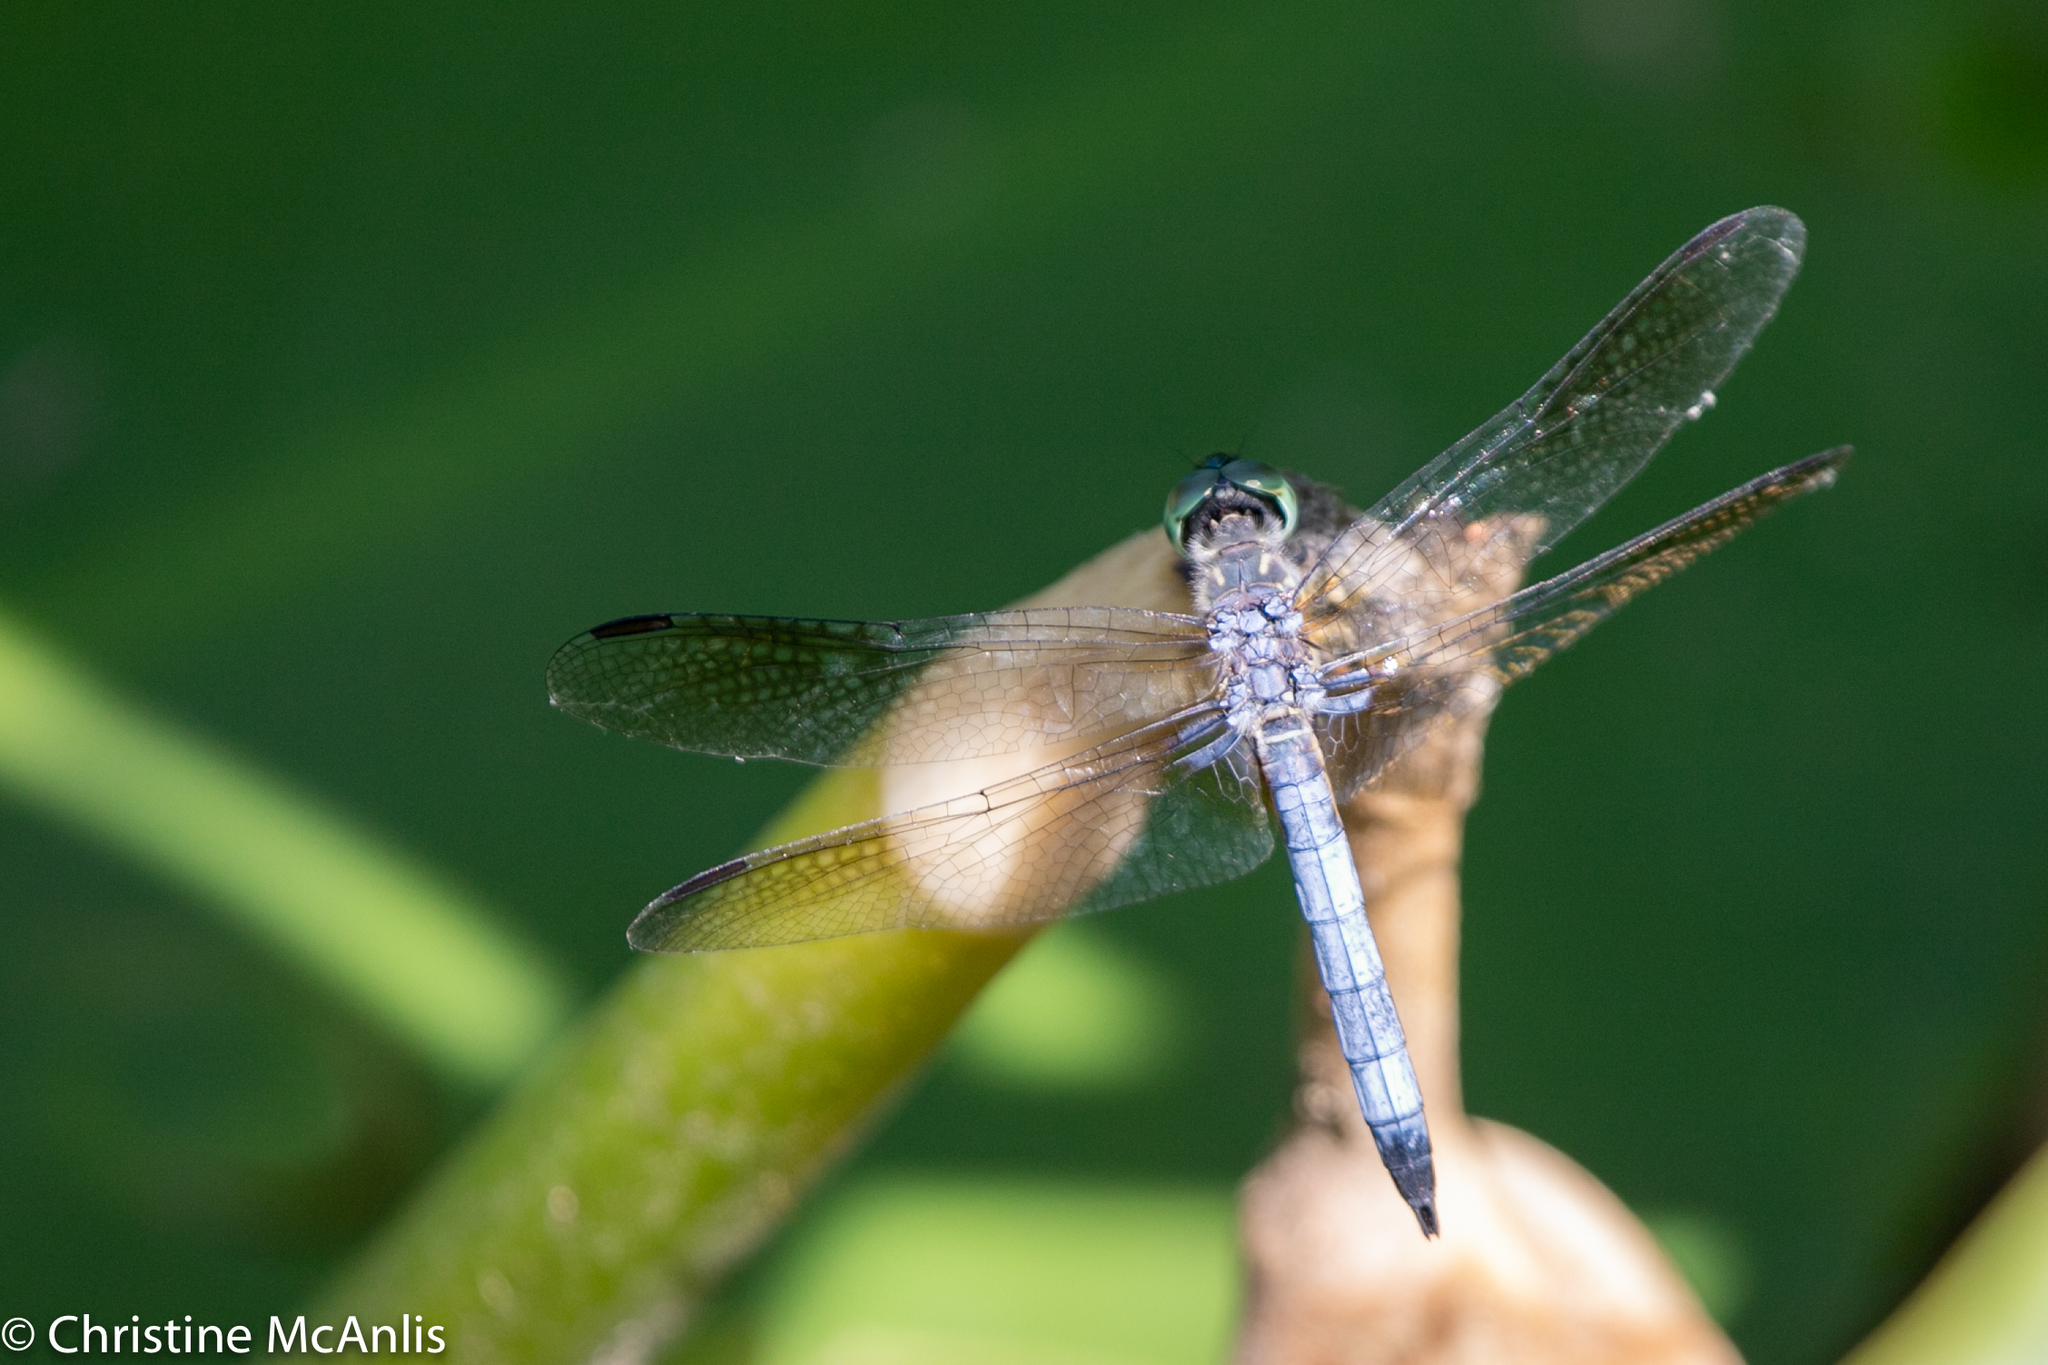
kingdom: Animalia
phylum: Arthropoda
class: Insecta
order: Odonata
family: Libellulidae
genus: Pachydiplax
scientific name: Pachydiplax longipennis
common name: Blue dasher
